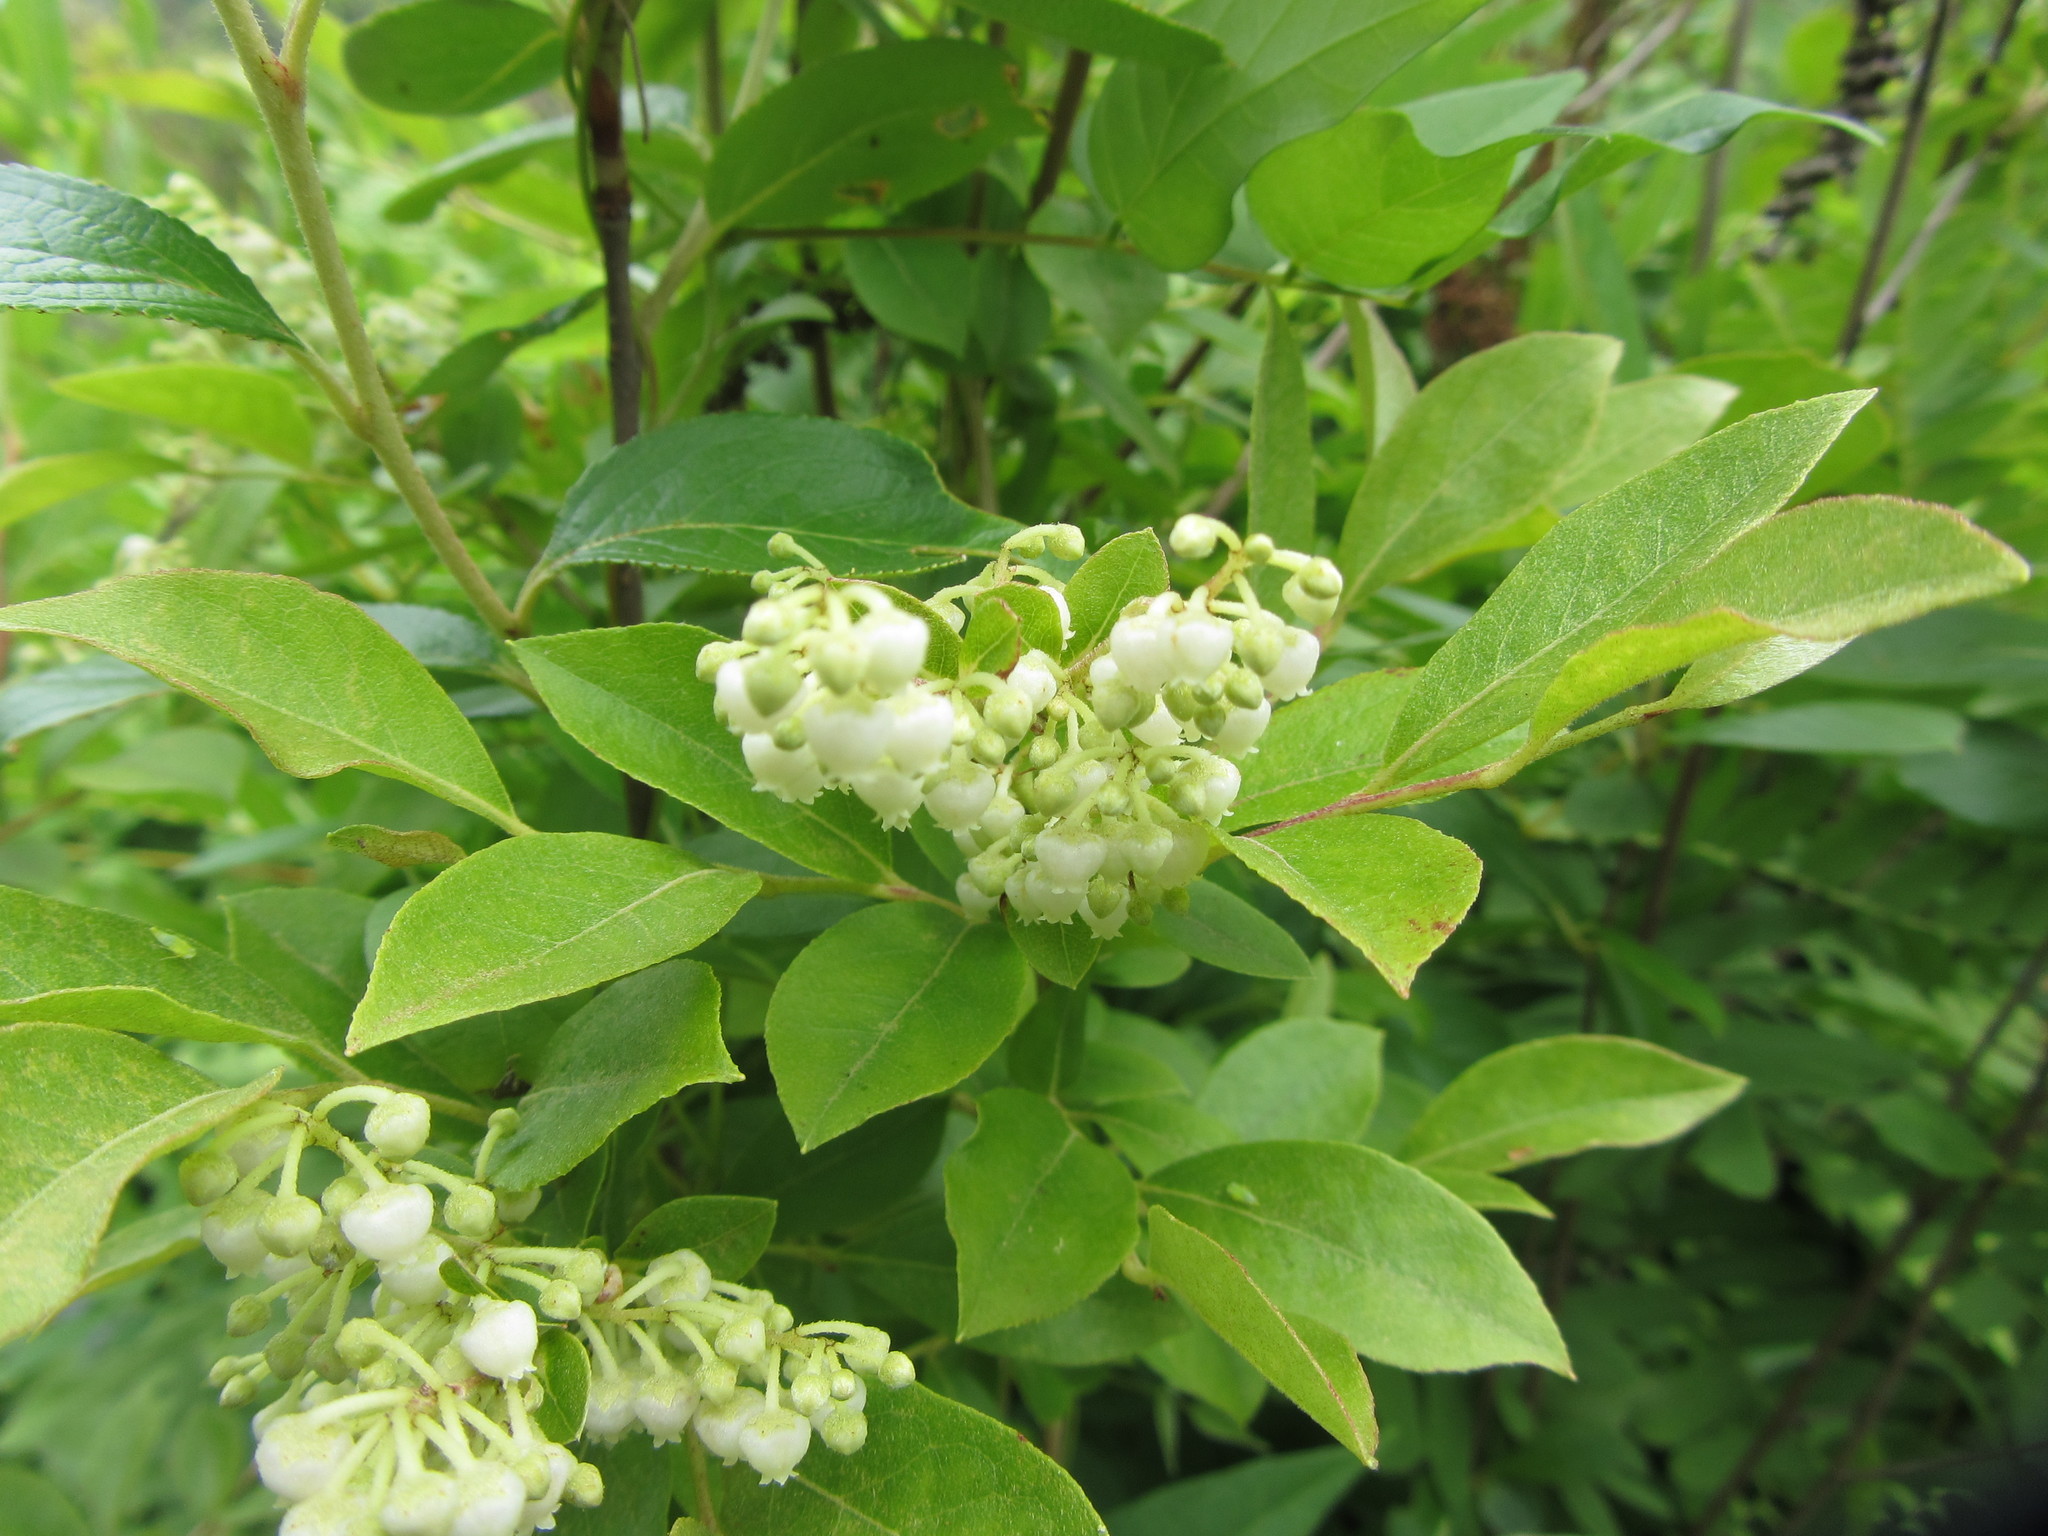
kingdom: Plantae
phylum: Tracheophyta
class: Magnoliopsida
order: Ericales
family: Ericaceae
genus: Lyonia
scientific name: Lyonia ligustrina
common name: Maleberry
